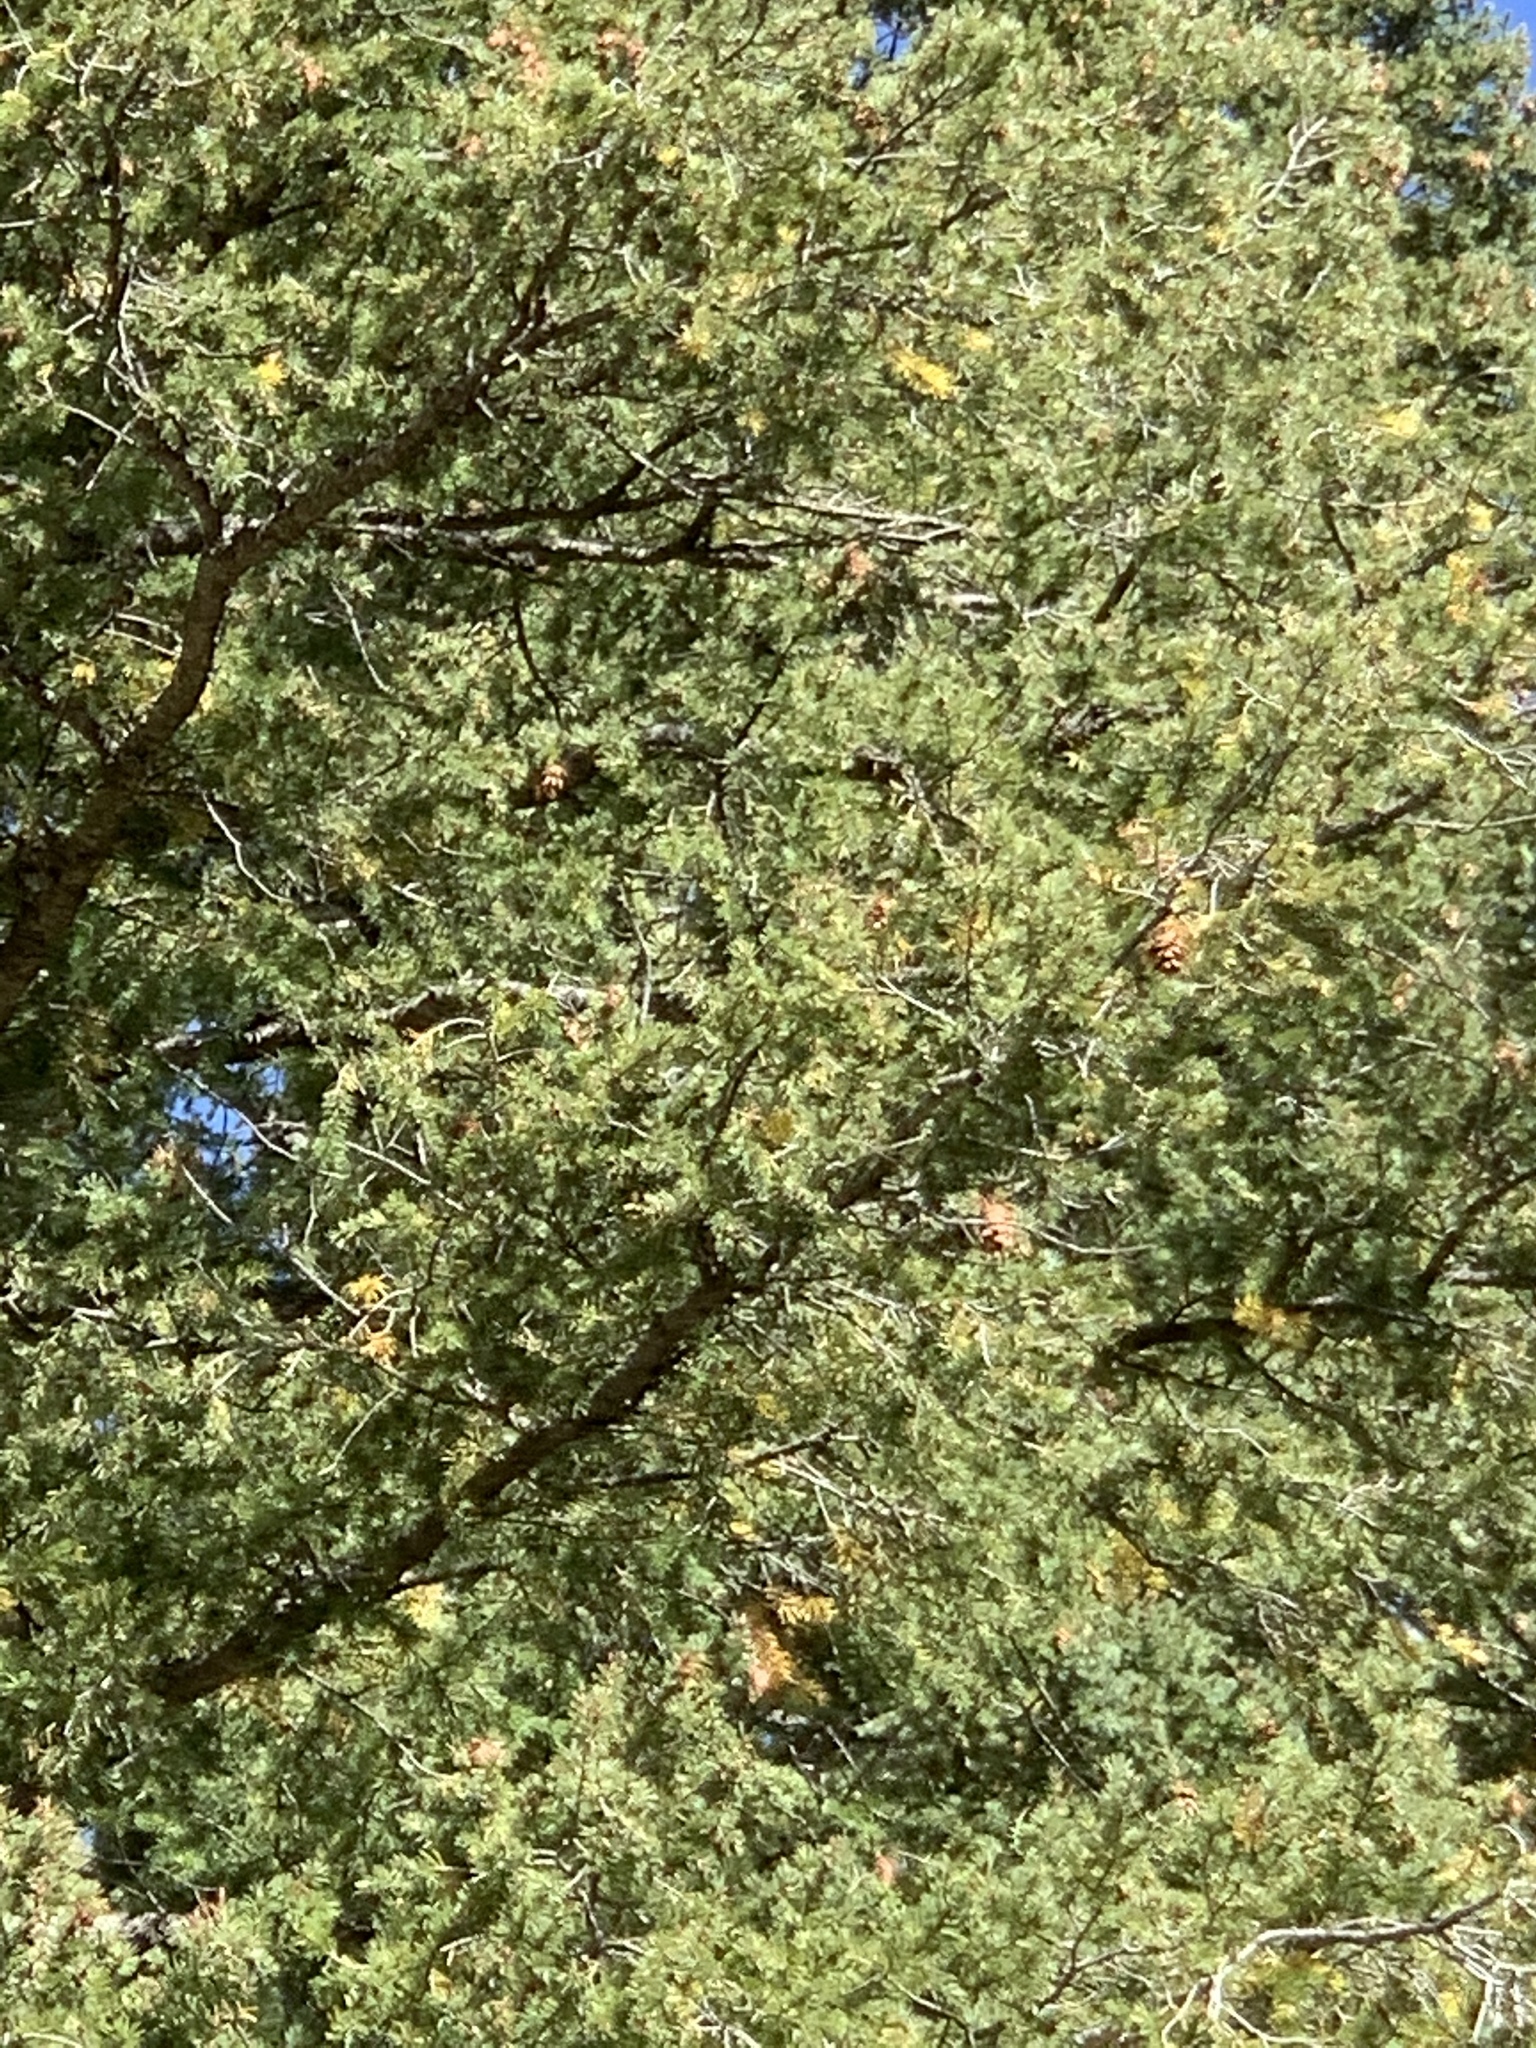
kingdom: Plantae
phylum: Tracheophyta
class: Pinopsida
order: Pinales
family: Pinaceae
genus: Pseudotsuga
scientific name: Pseudotsuga menziesii
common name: Douglas fir
